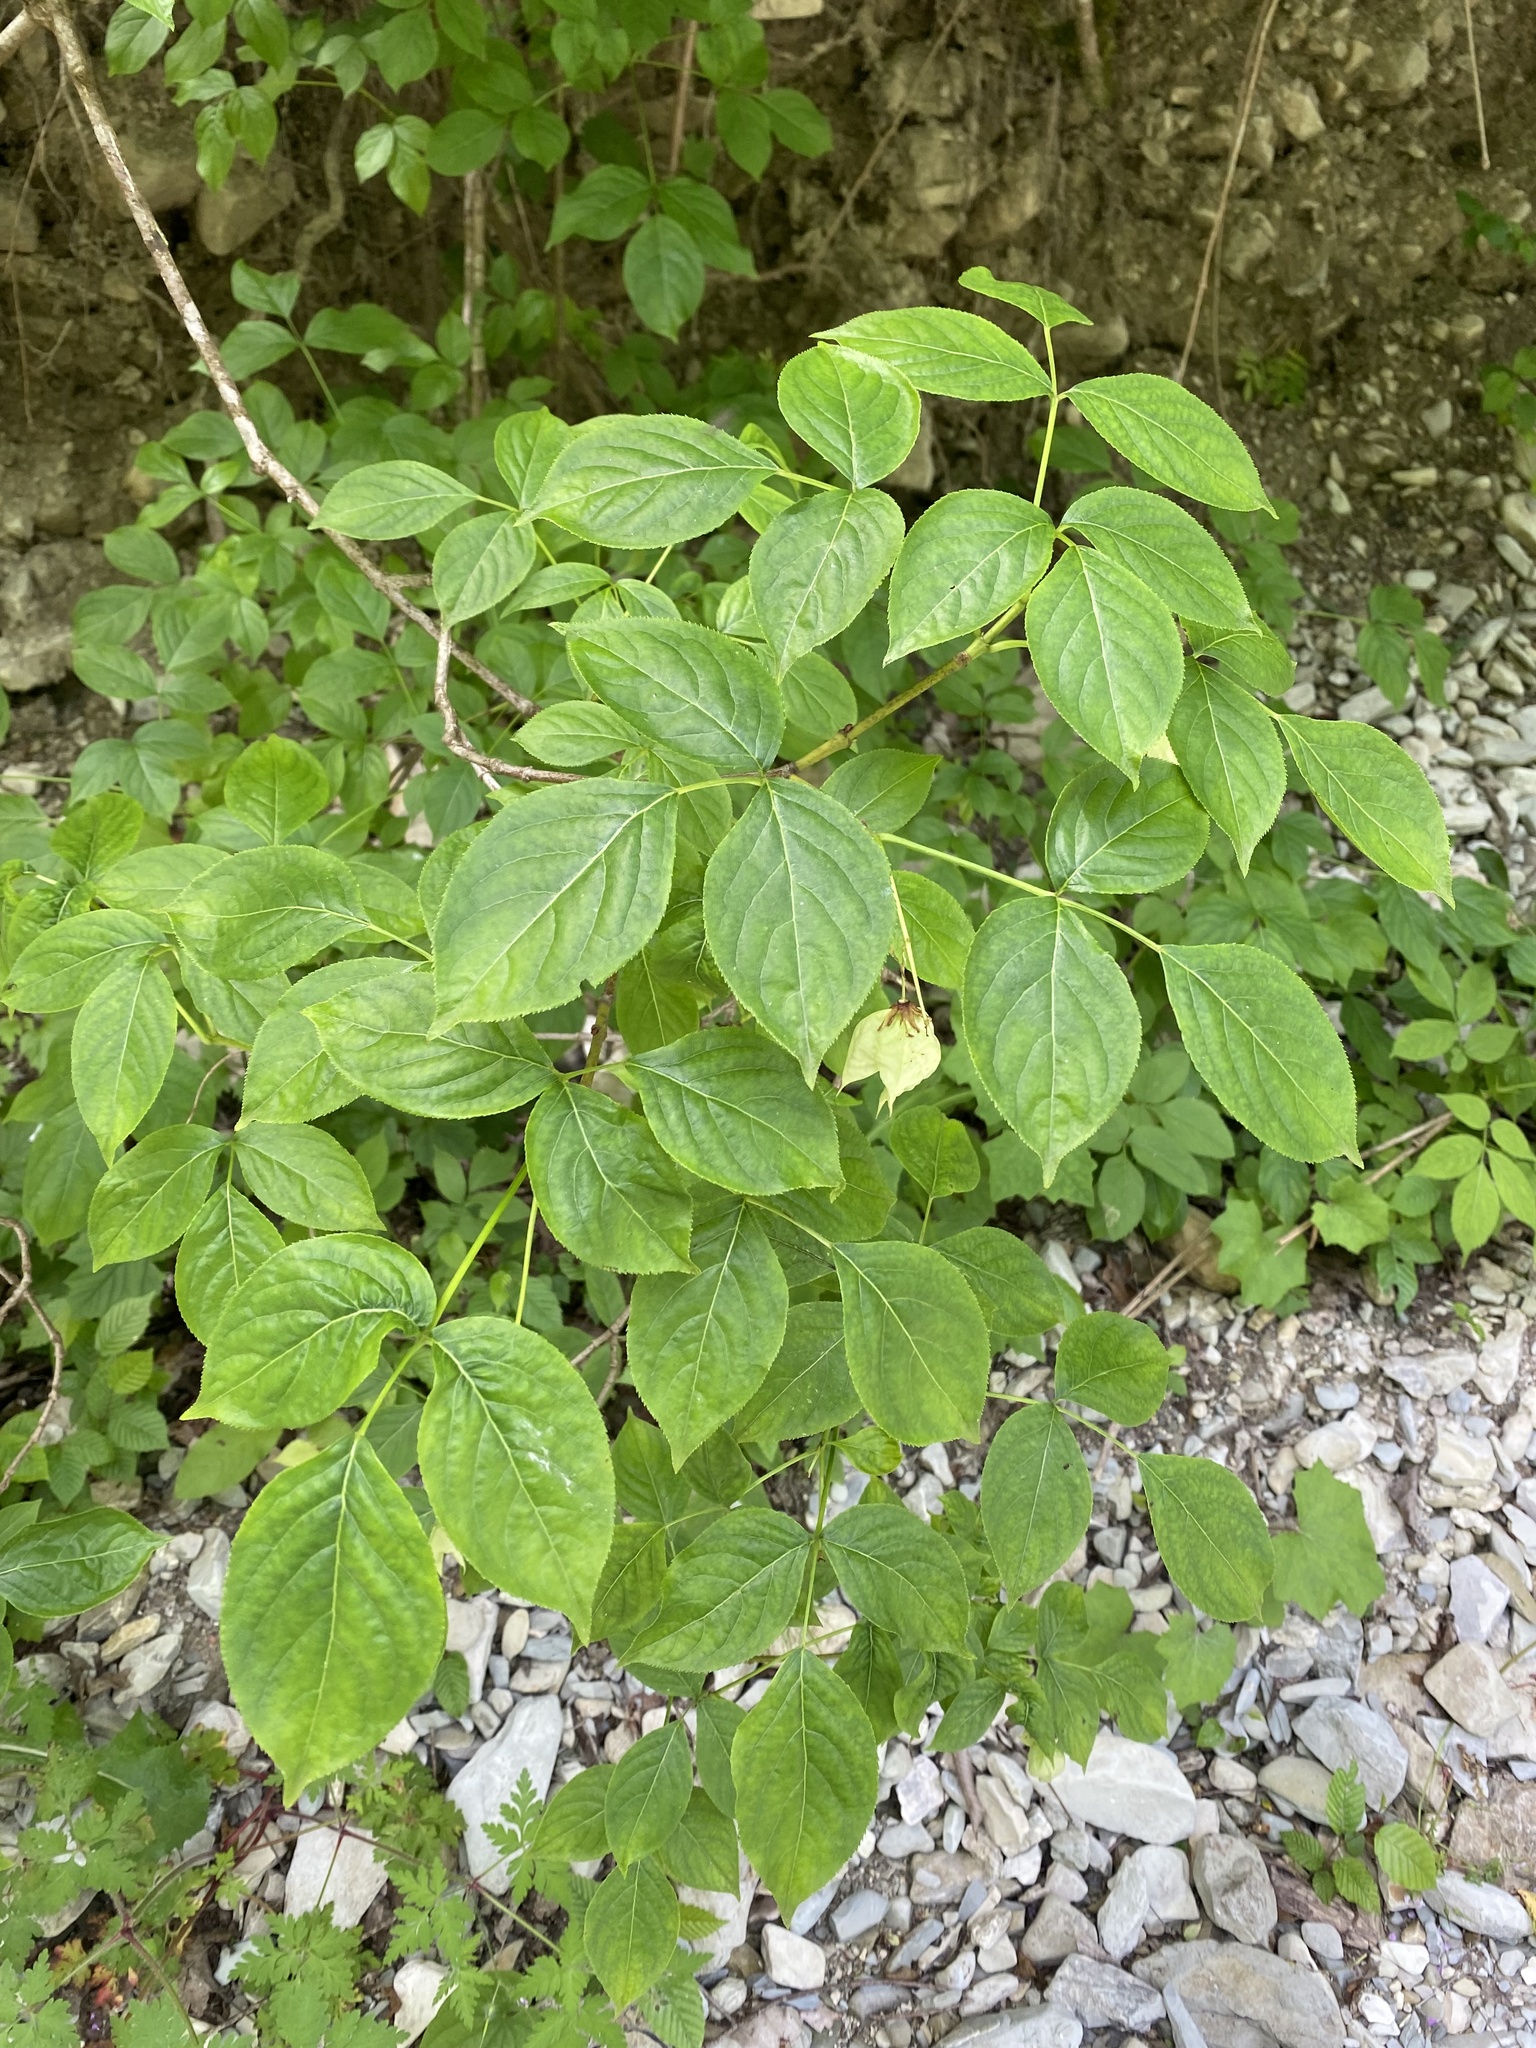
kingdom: Plantae
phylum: Tracheophyta
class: Magnoliopsida
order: Crossosomatales
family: Staphyleaceae
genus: Staphylea
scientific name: Staphylea colchica
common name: Caucasian bladdernut
